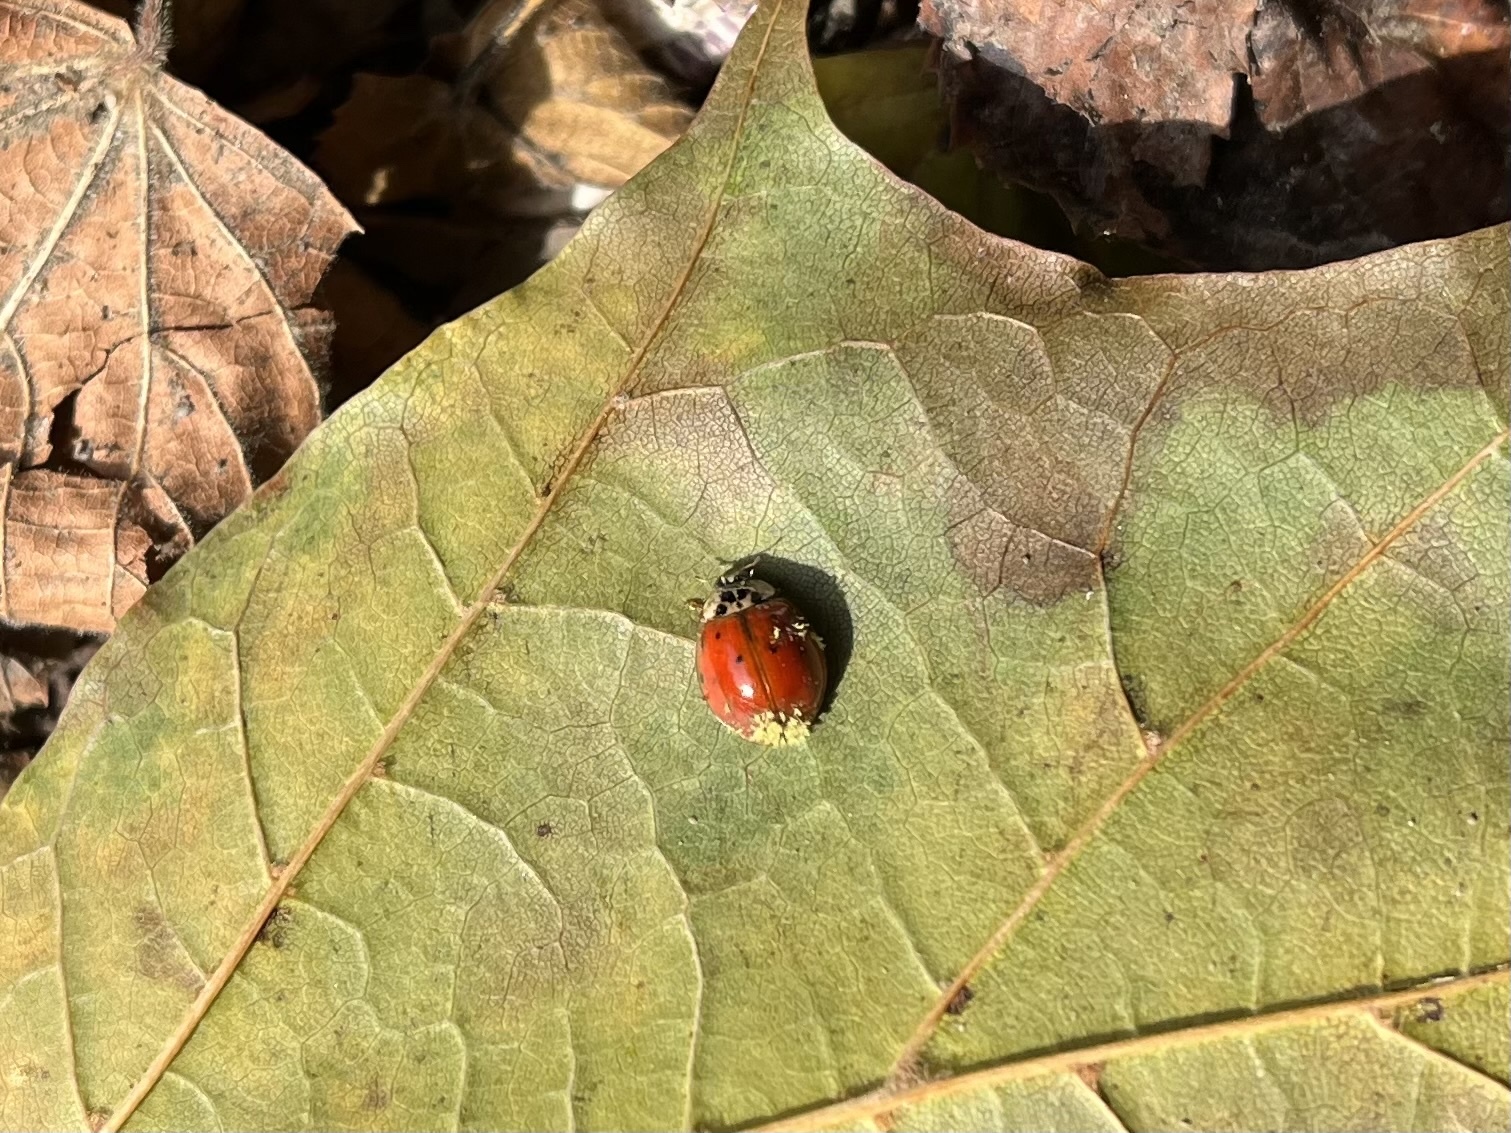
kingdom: Animalia
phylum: Arthropoda
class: Insecta
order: Coleoptera
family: Coccinellidae
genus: Harmonia
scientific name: Harmonia axyridis
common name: Harlequin ladybird
